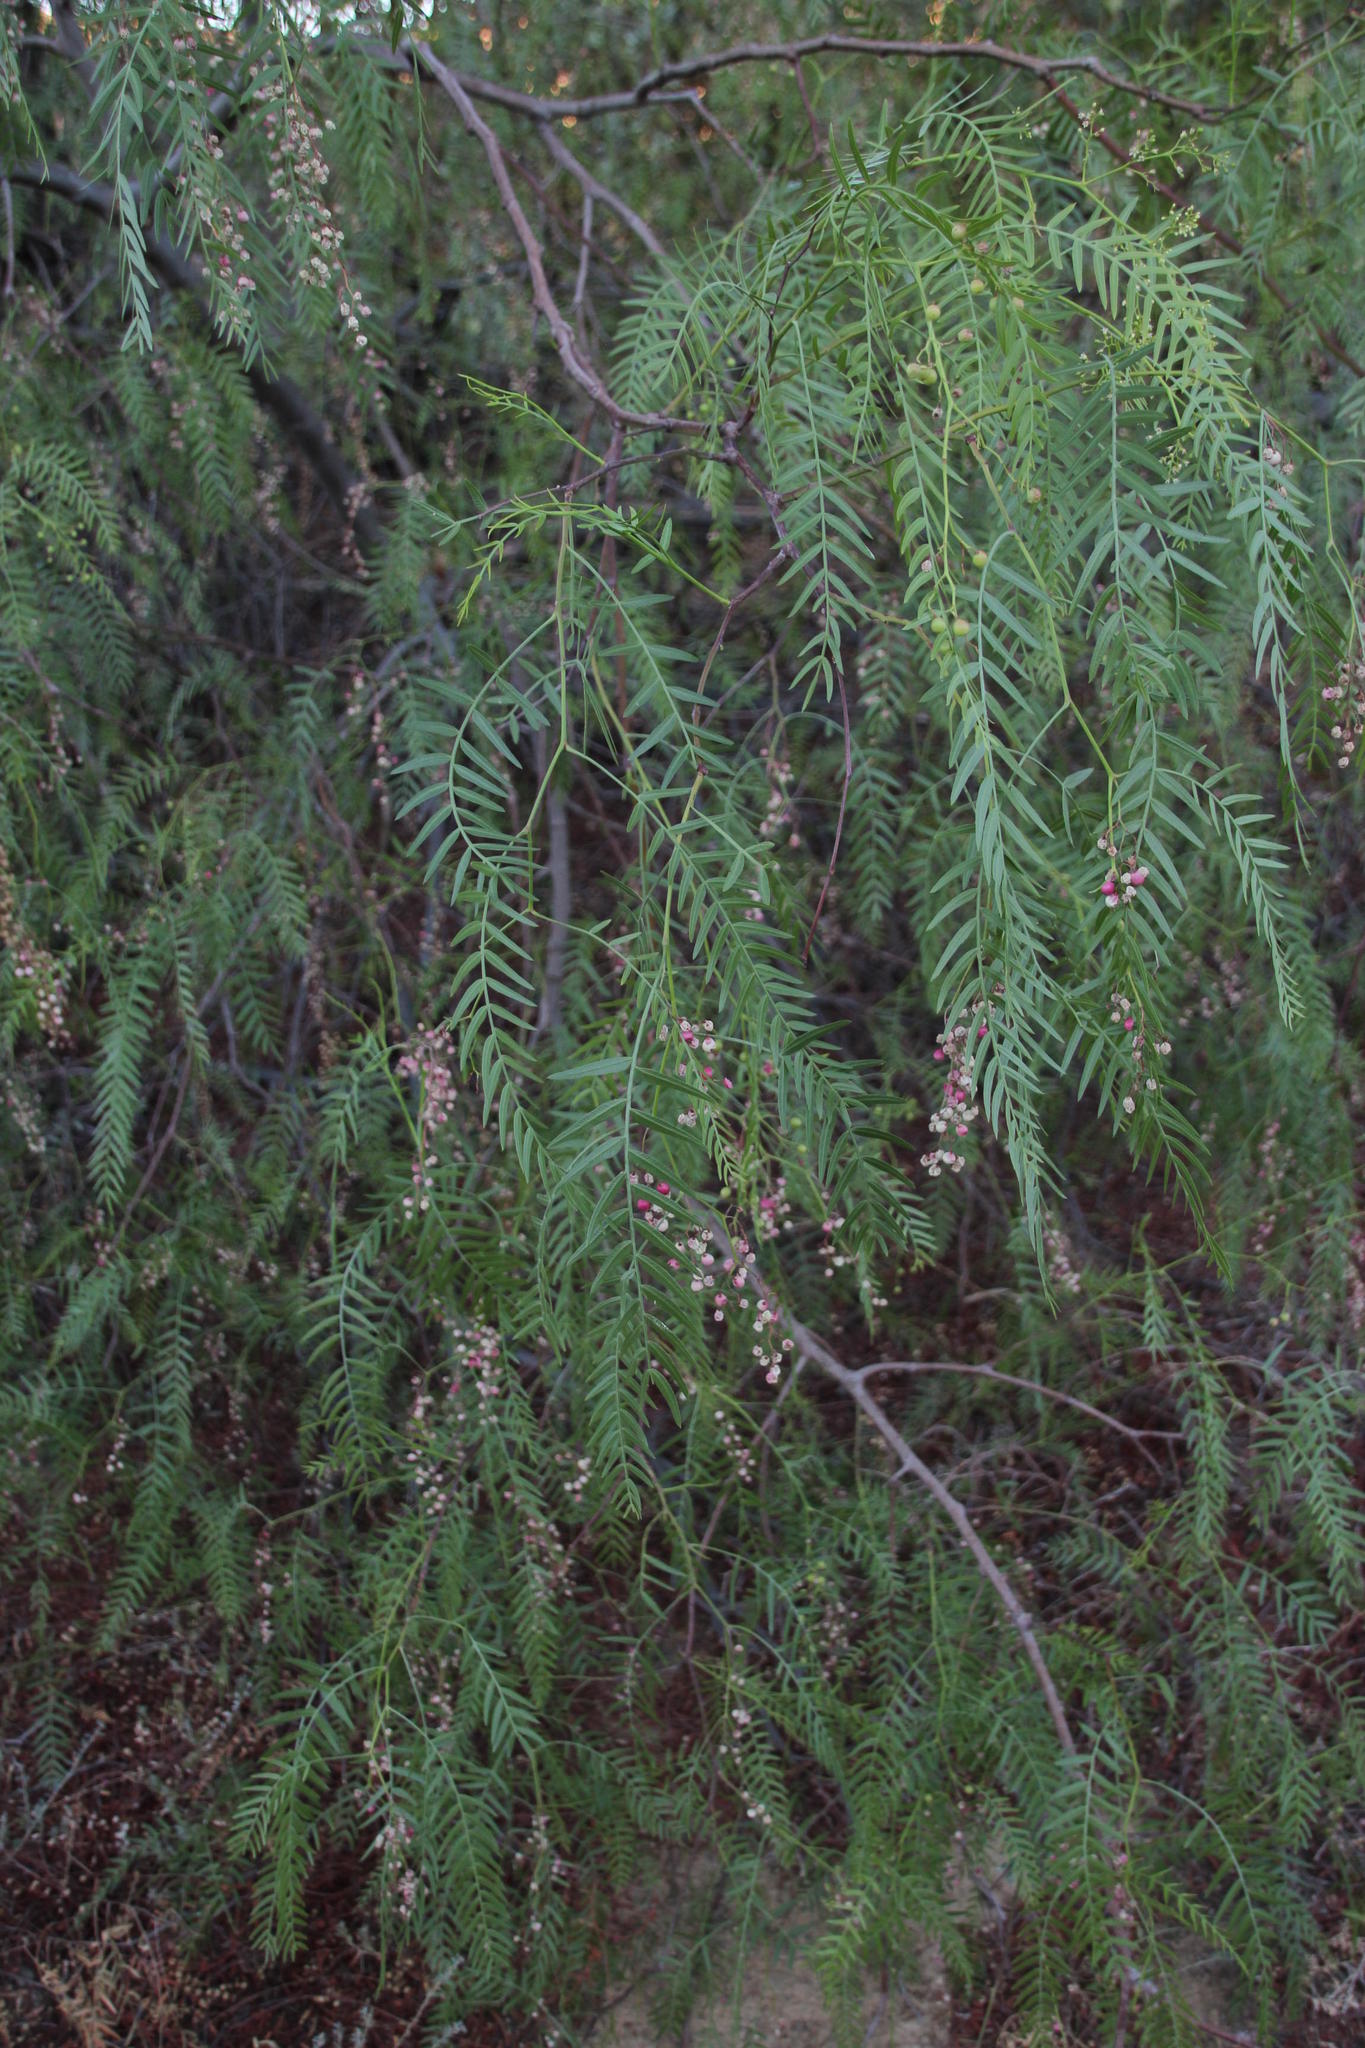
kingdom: Plantae
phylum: Tracheophyta
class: Magnoliopsida
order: Sapindales
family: Anacardiaceae
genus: Schinus
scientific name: Schinus molle
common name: Peruvian peppertree
